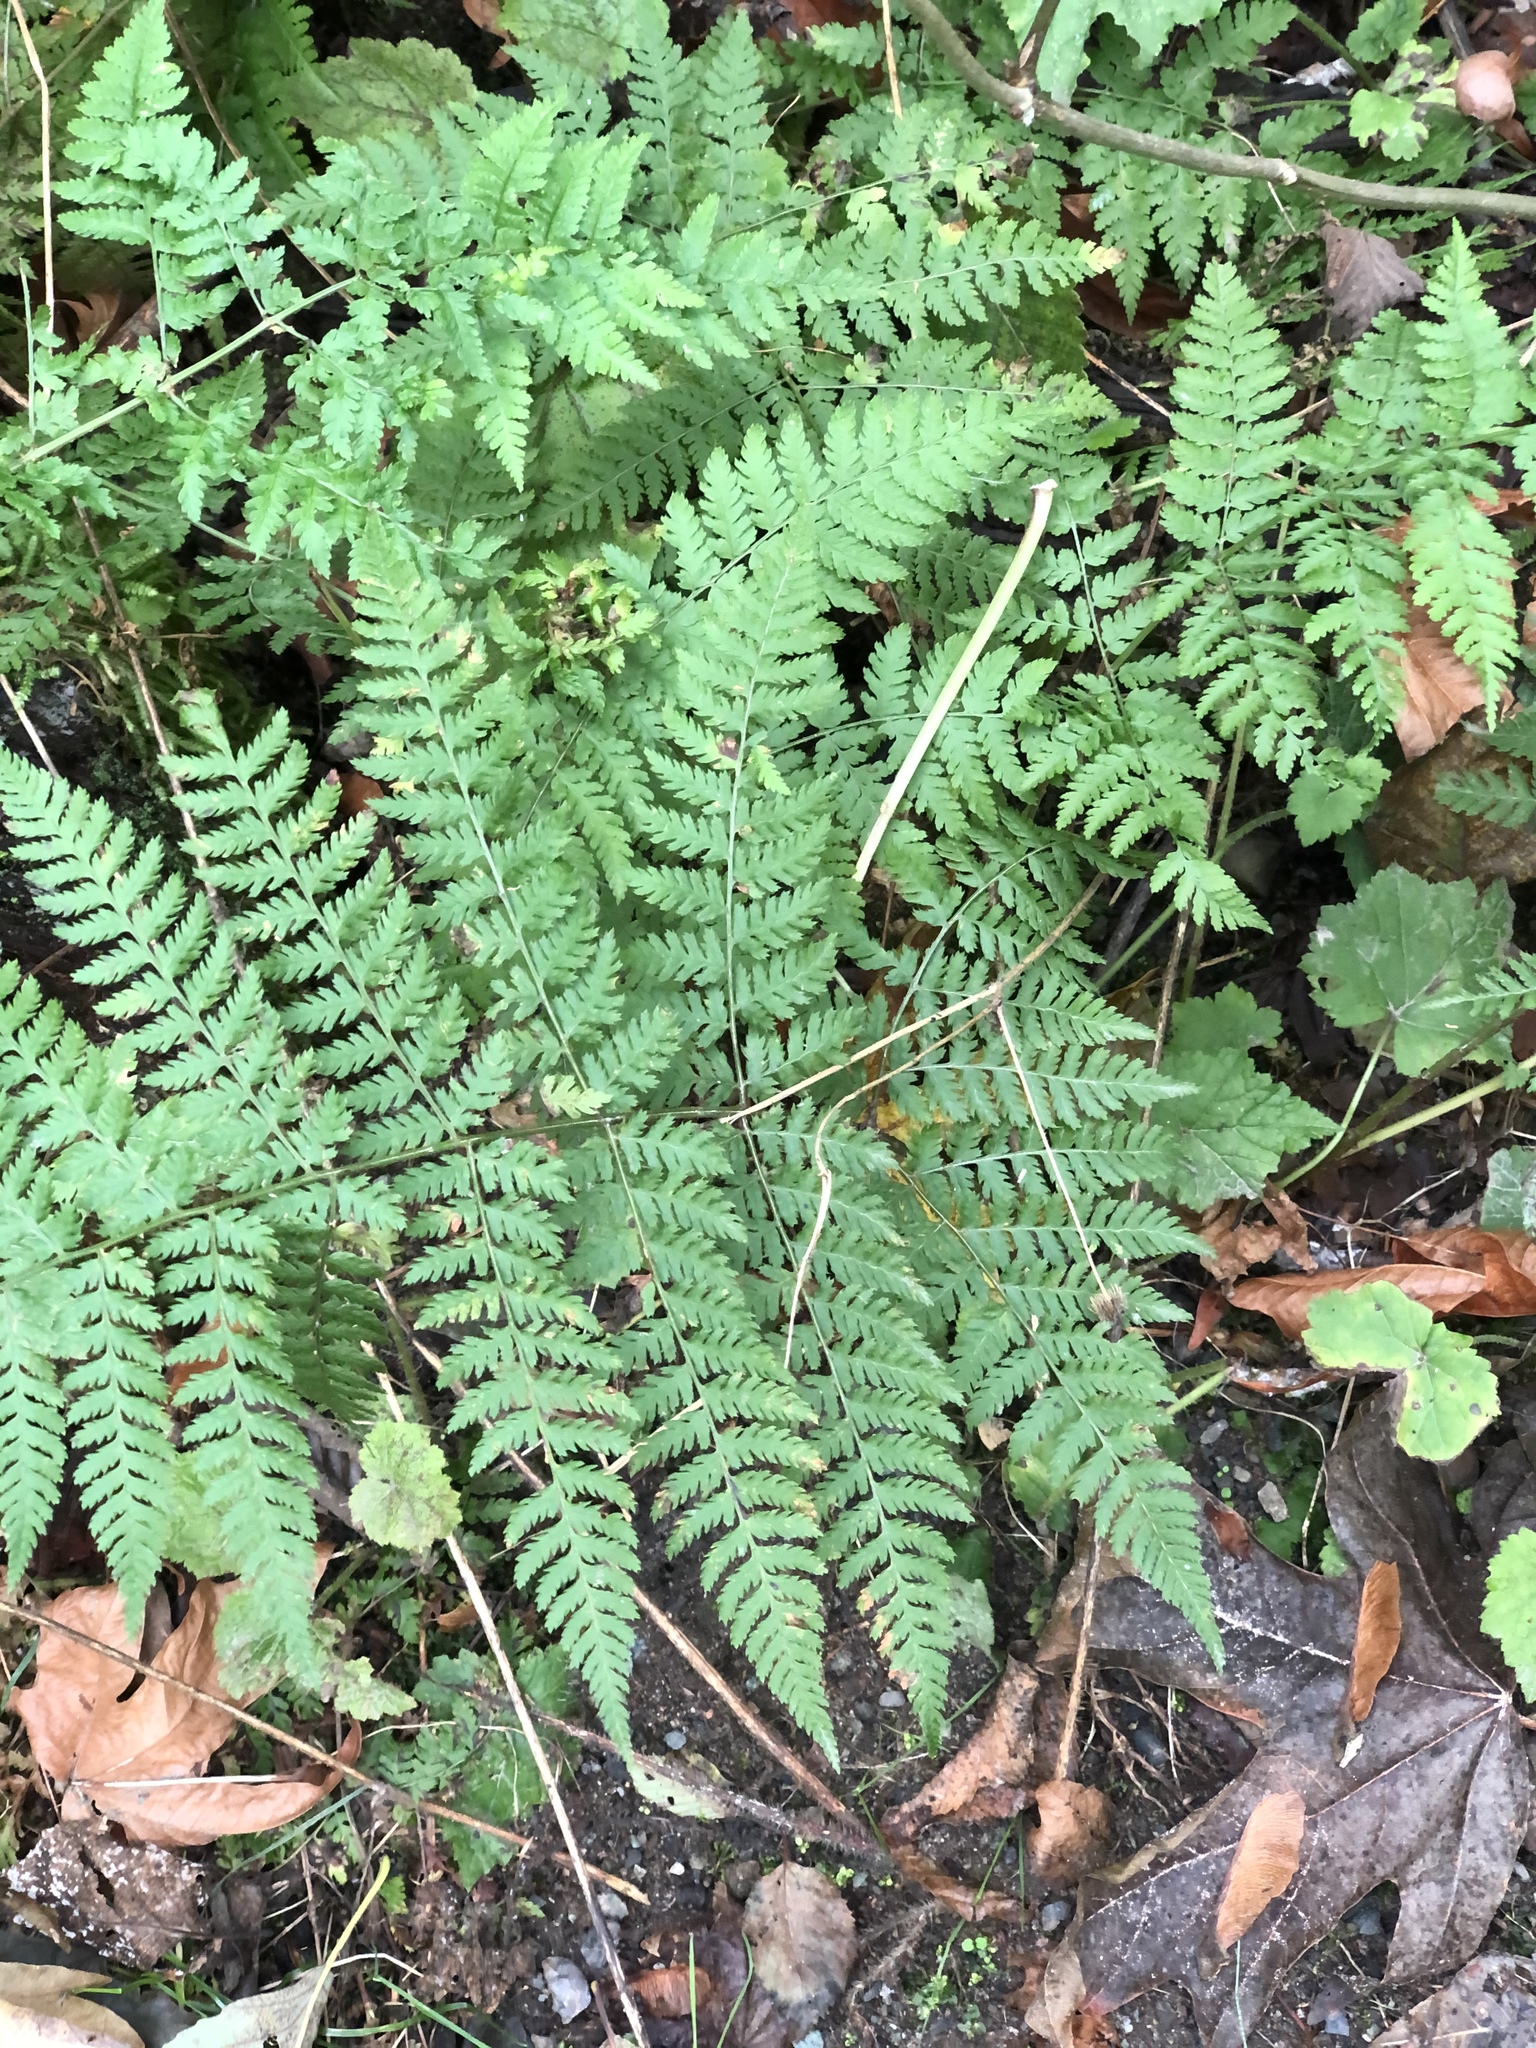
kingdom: Plantae
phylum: Tracheophyta
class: Polypodiopsida
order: Polypodiales
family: Dryopteridaceae
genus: Dryopteris
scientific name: Dryopteris expansa
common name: Northern buckler fern
